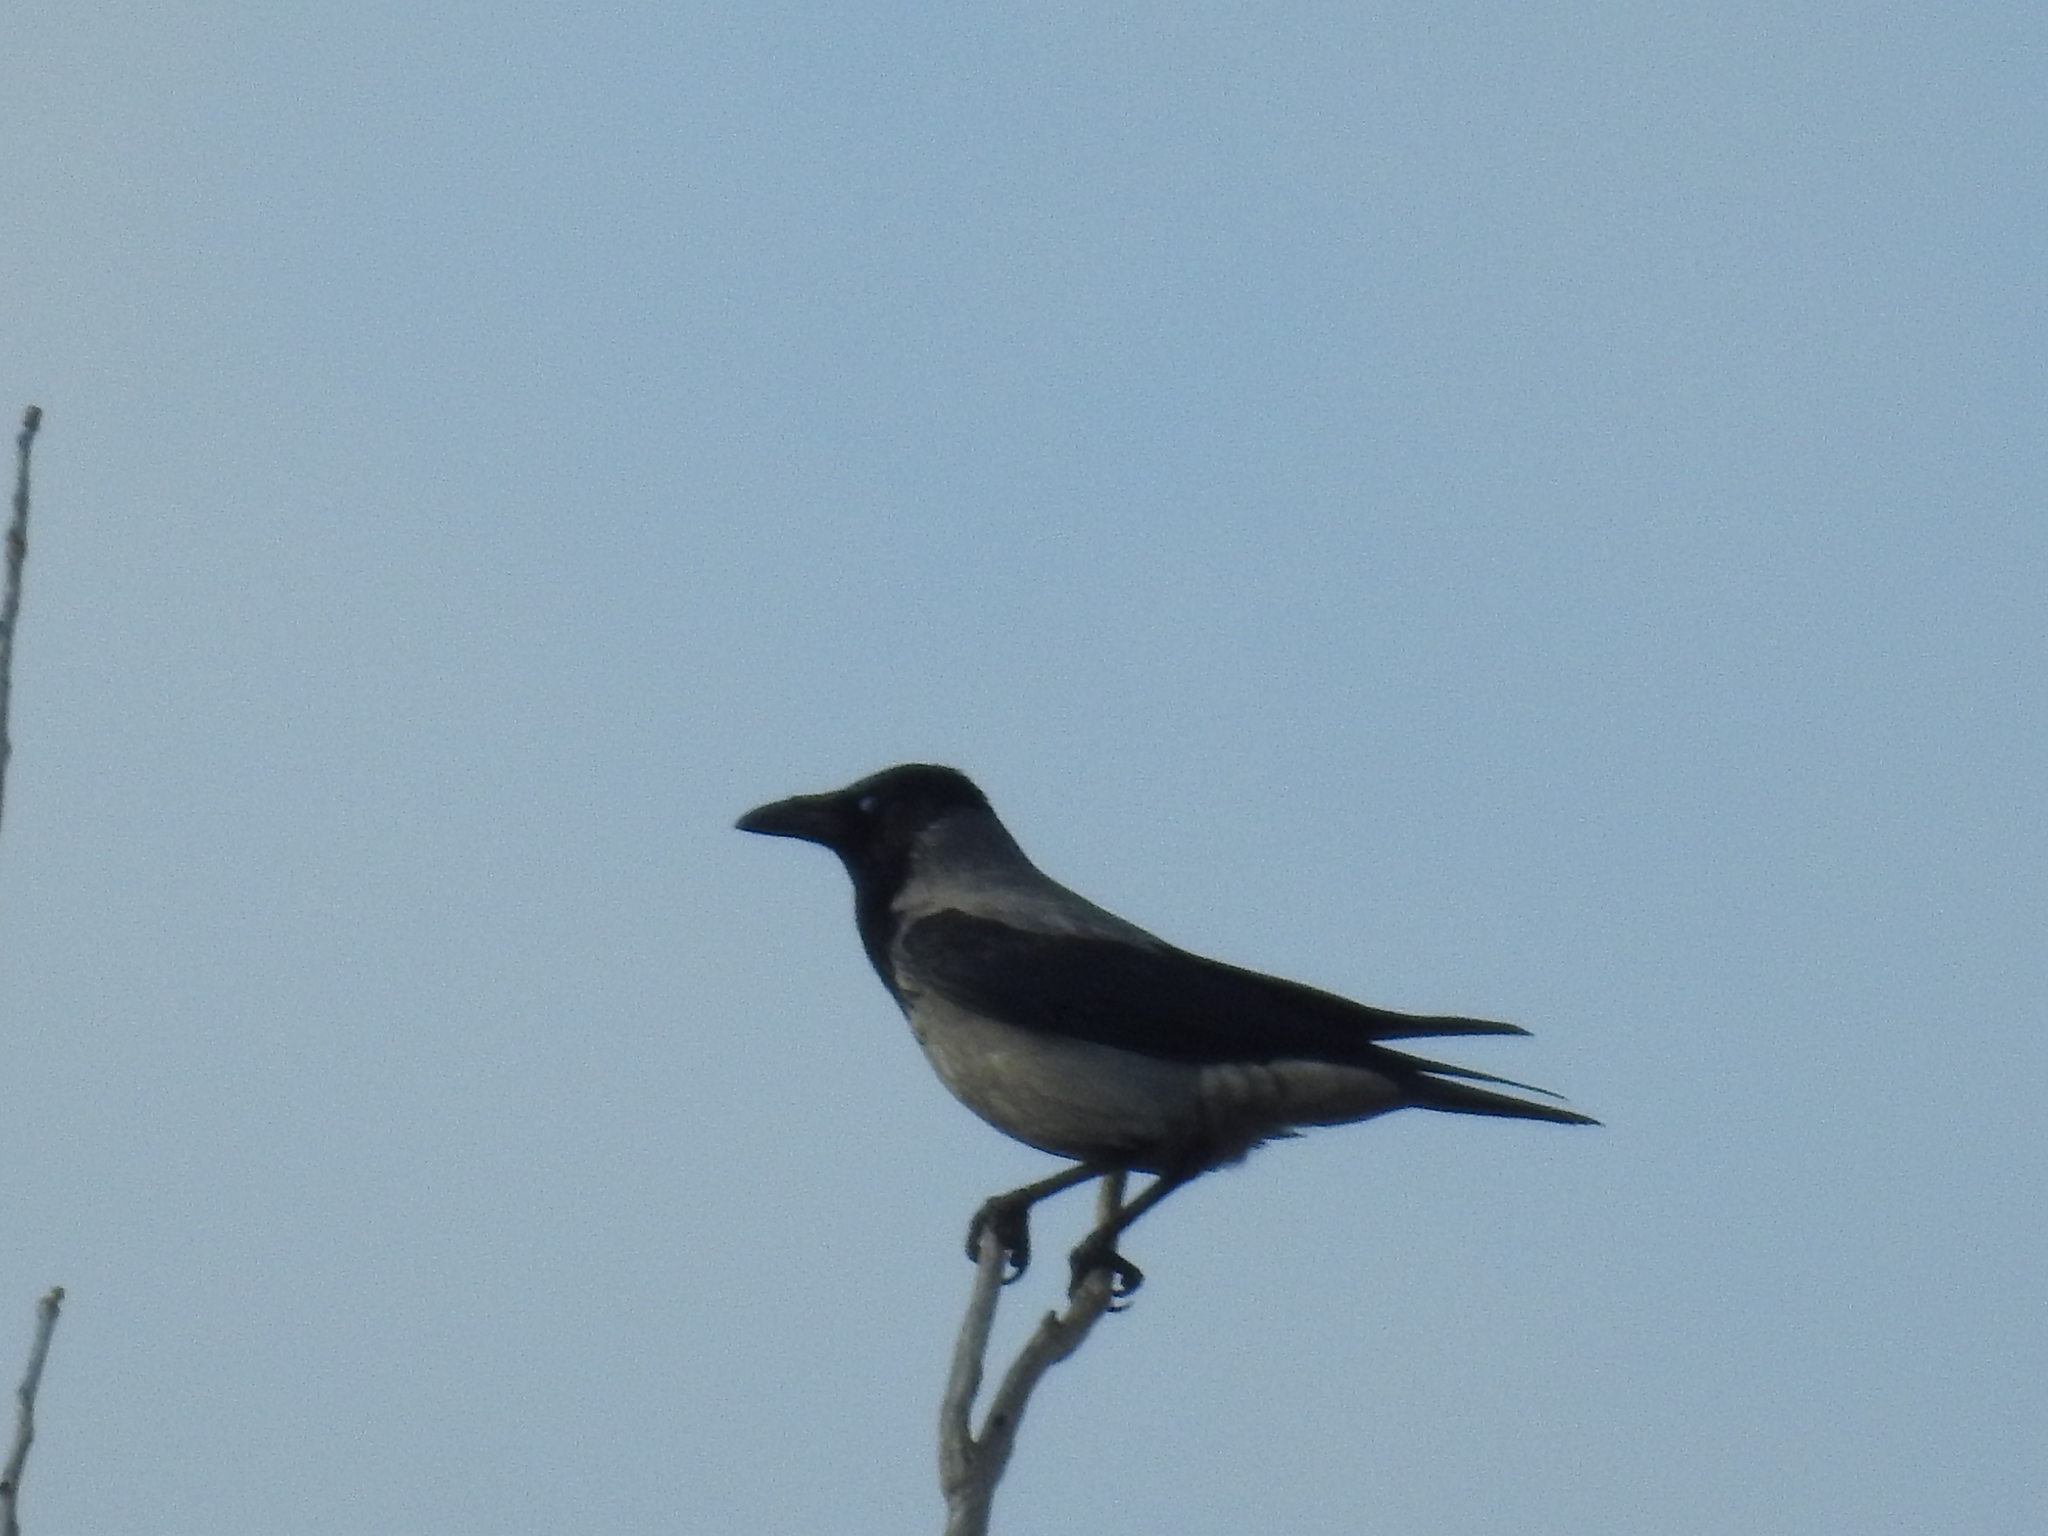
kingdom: Animalia
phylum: Chordata
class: Aves
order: Passeriformes
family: Corvidae
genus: Corvus
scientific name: Corvus cornix
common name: Hooded crow
